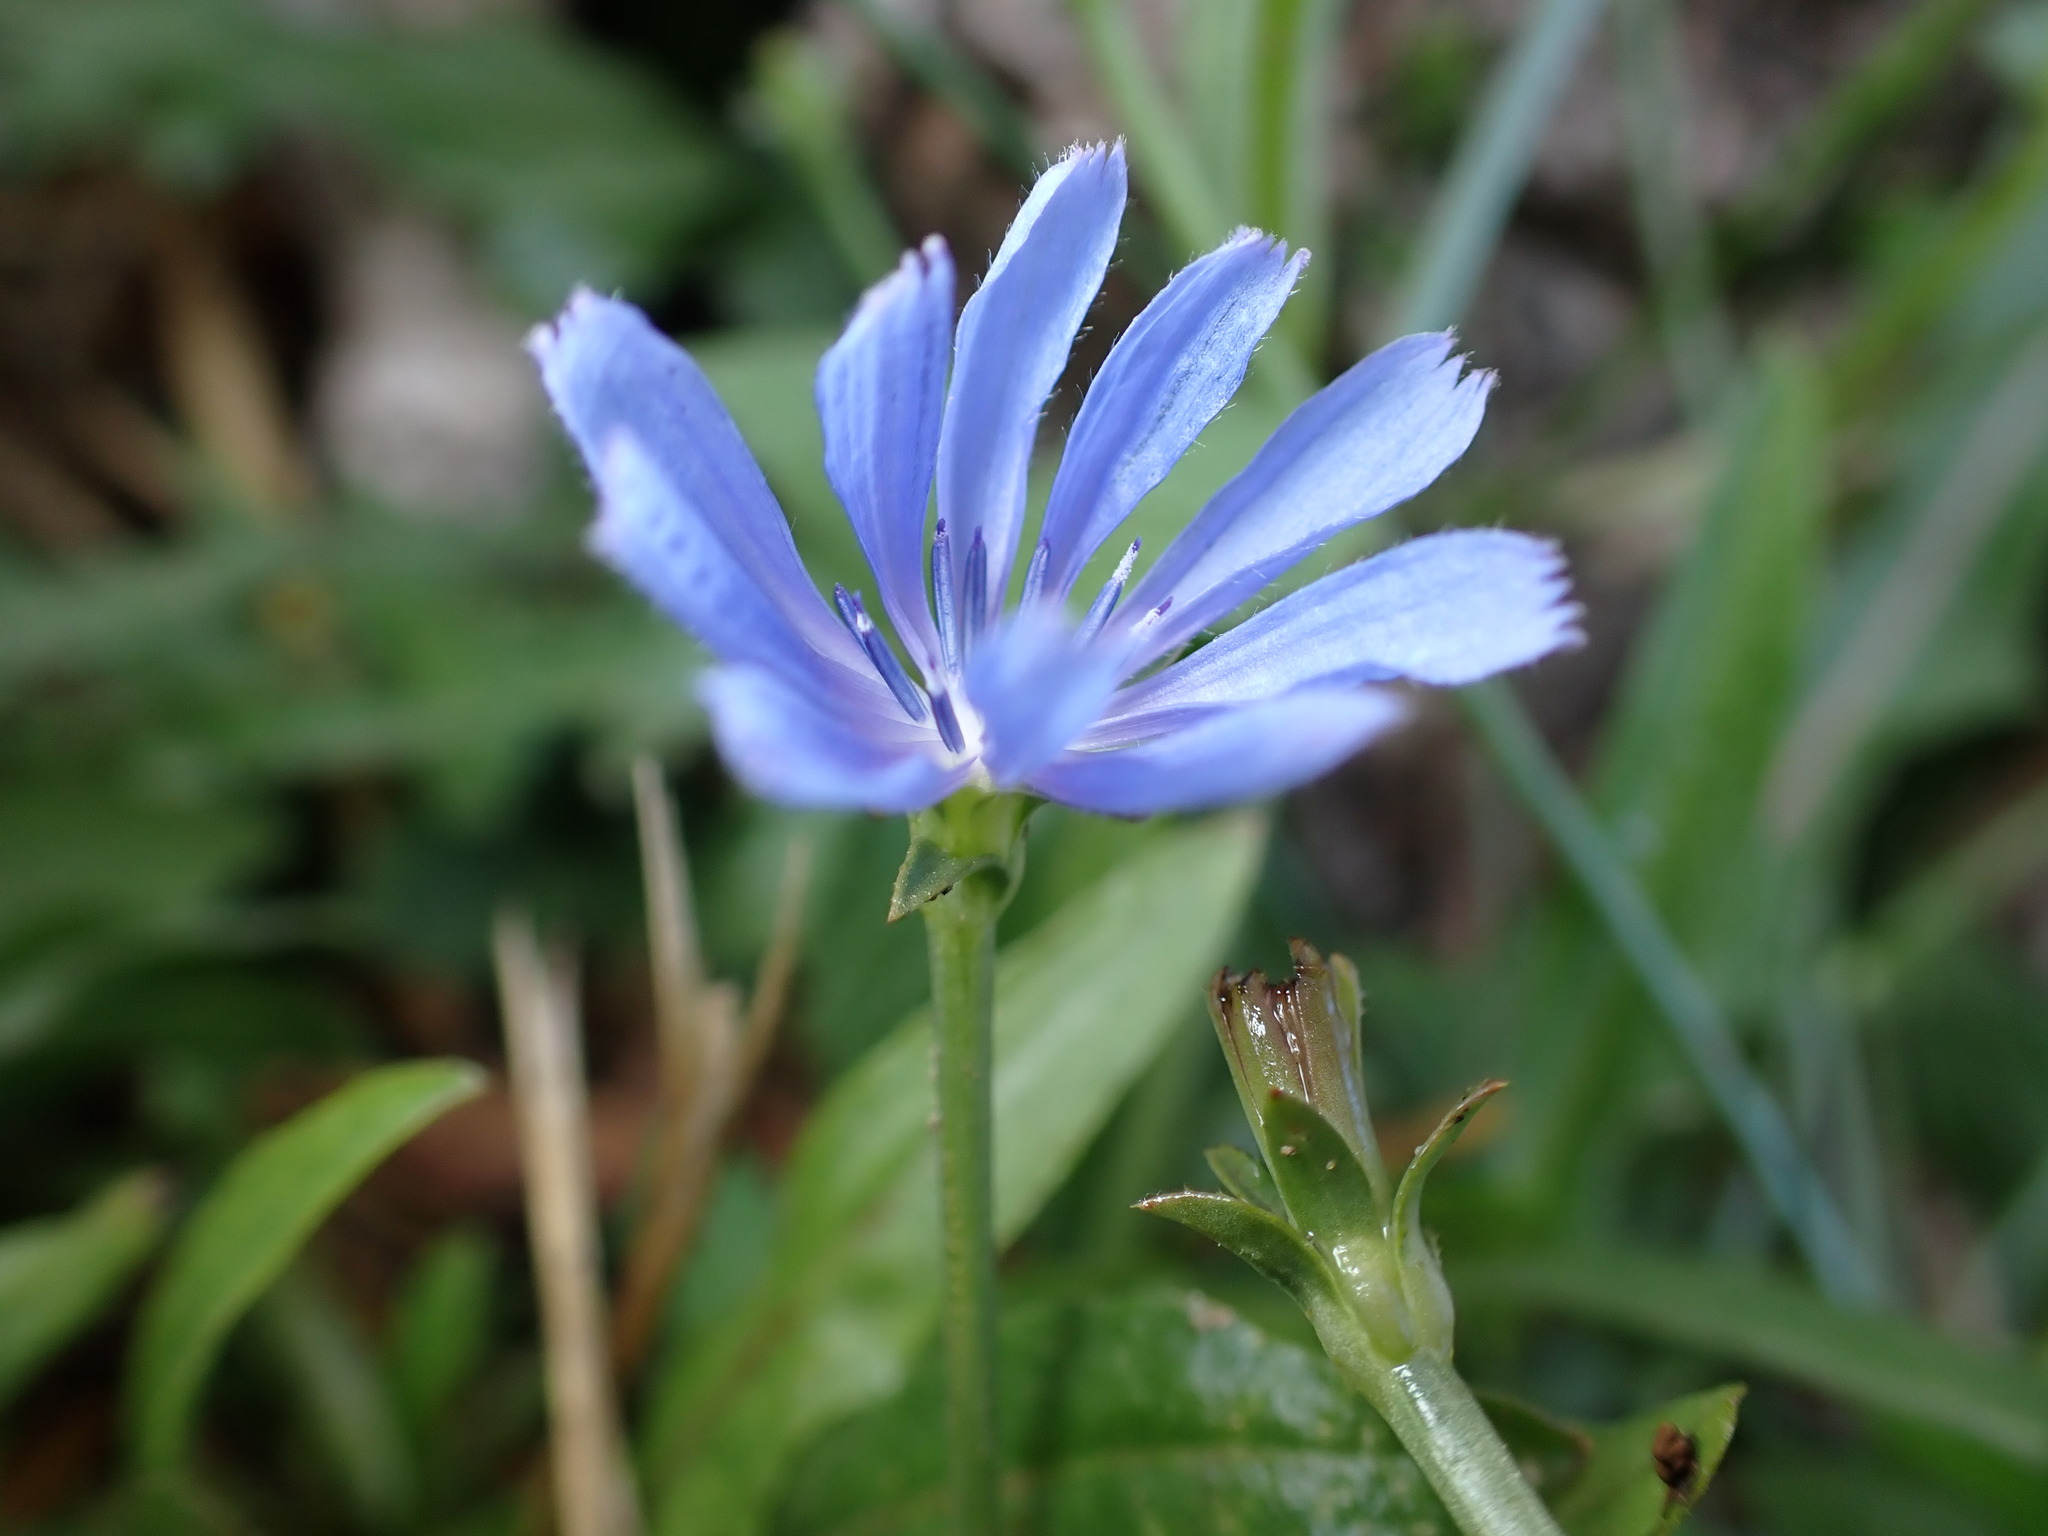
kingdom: Plantae
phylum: Tracheophyta
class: Magnoliopsida
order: Asterales
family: Asteraceae
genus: Cichorium
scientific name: Cichorium intybus
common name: Chicory
